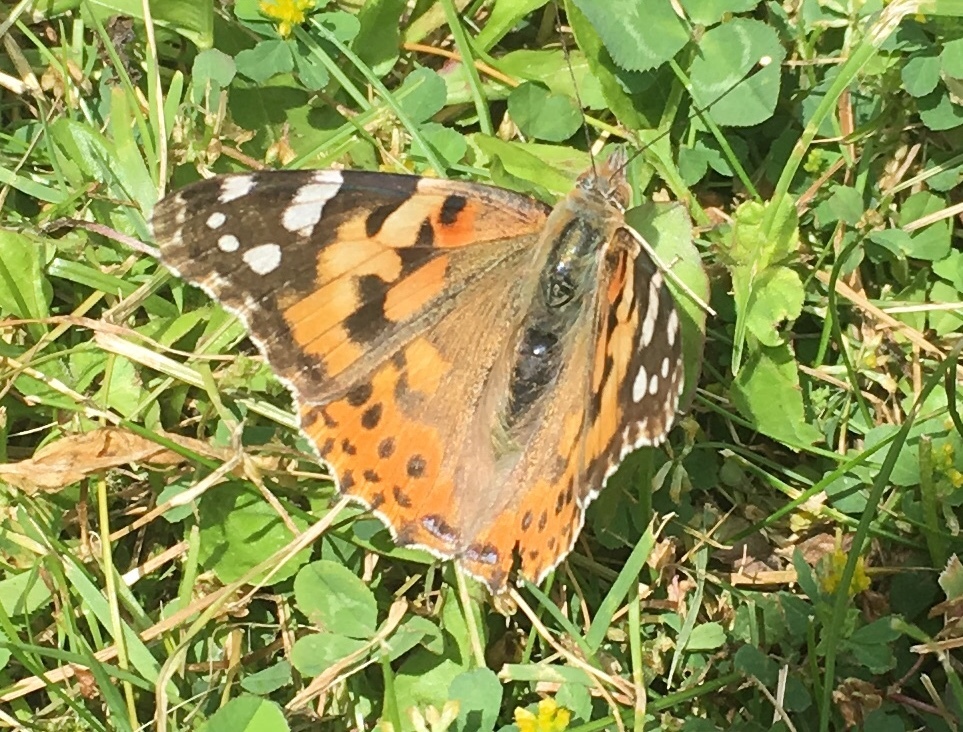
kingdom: Animalia
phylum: Arthropoda
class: Insecta
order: Lepidoptera
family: Nymphalidae
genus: Vanessa
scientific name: Vanessa cardui
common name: Painted lady
